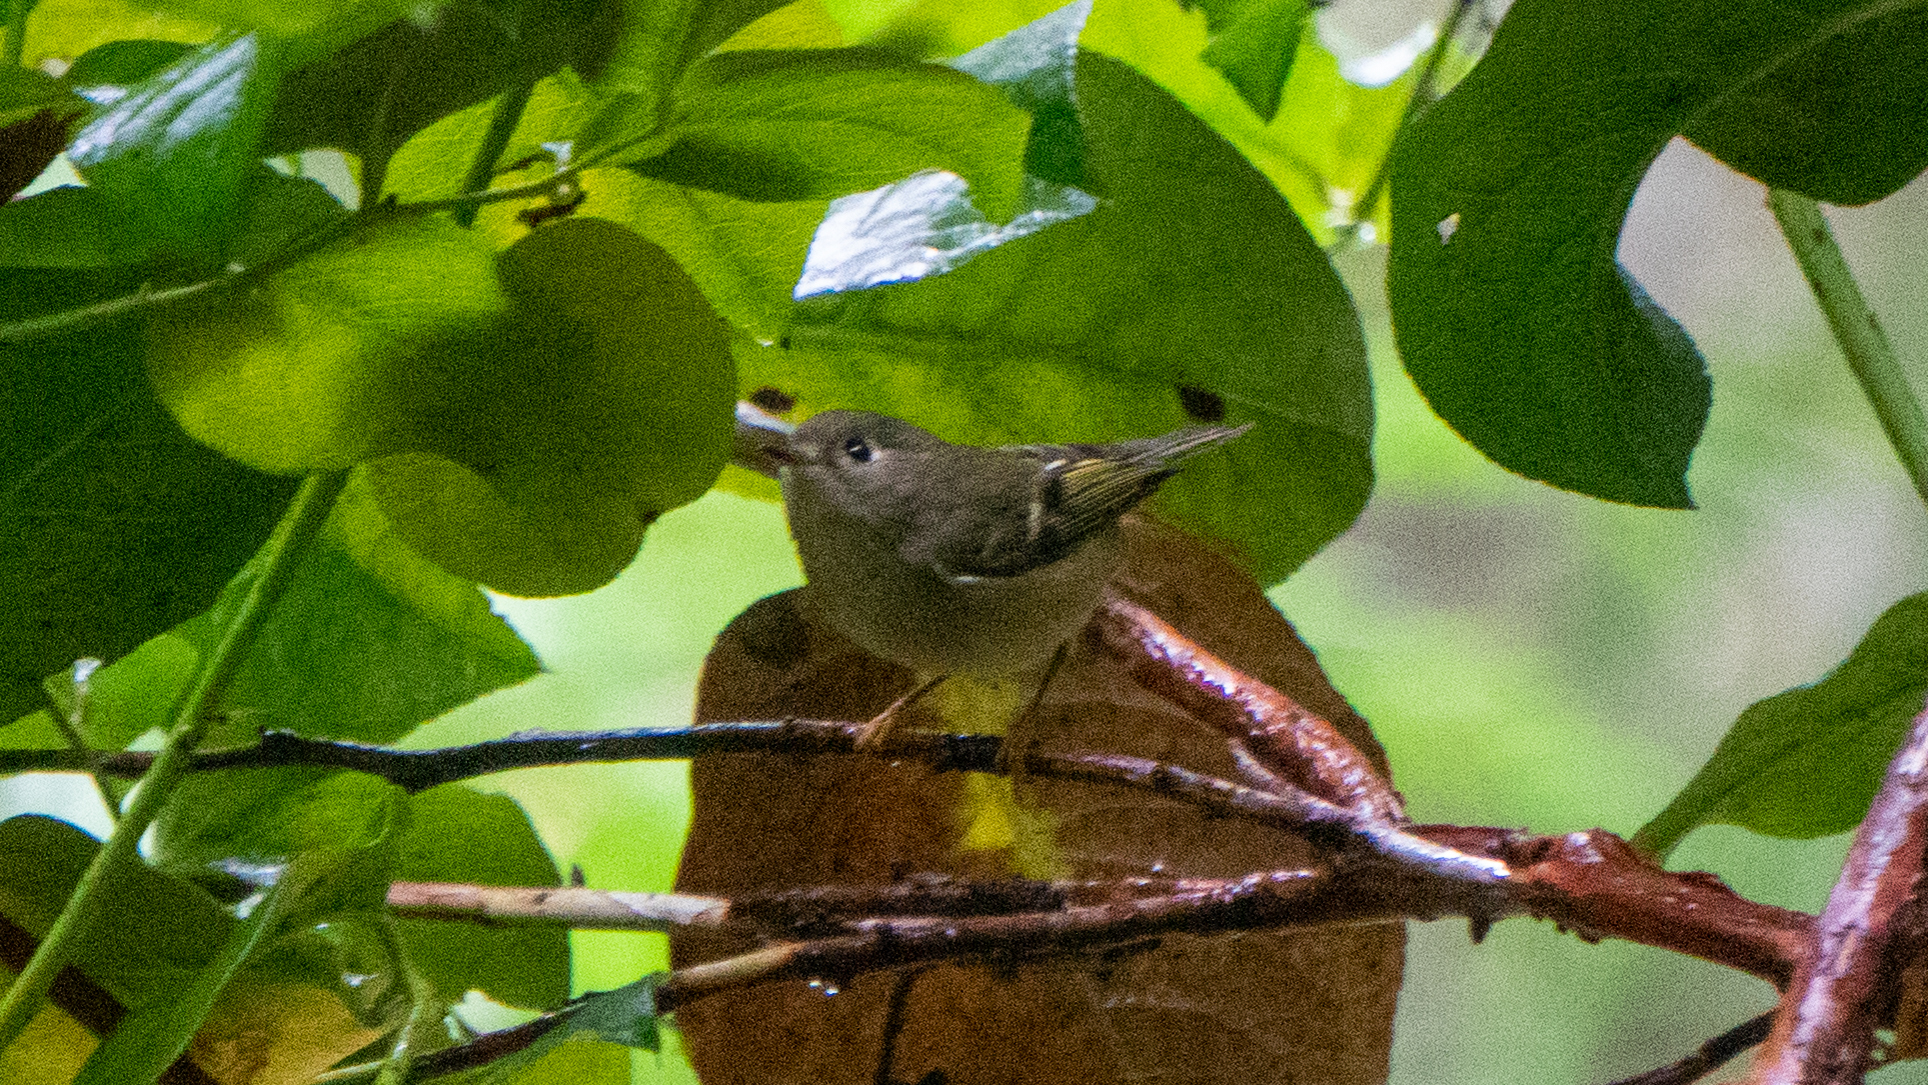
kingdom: Animalia
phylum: Chordata
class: Aves
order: Passeriformes
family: Regulidae
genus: Regulus
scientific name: Regulus calendula
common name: Ruby-crowned kinglet
